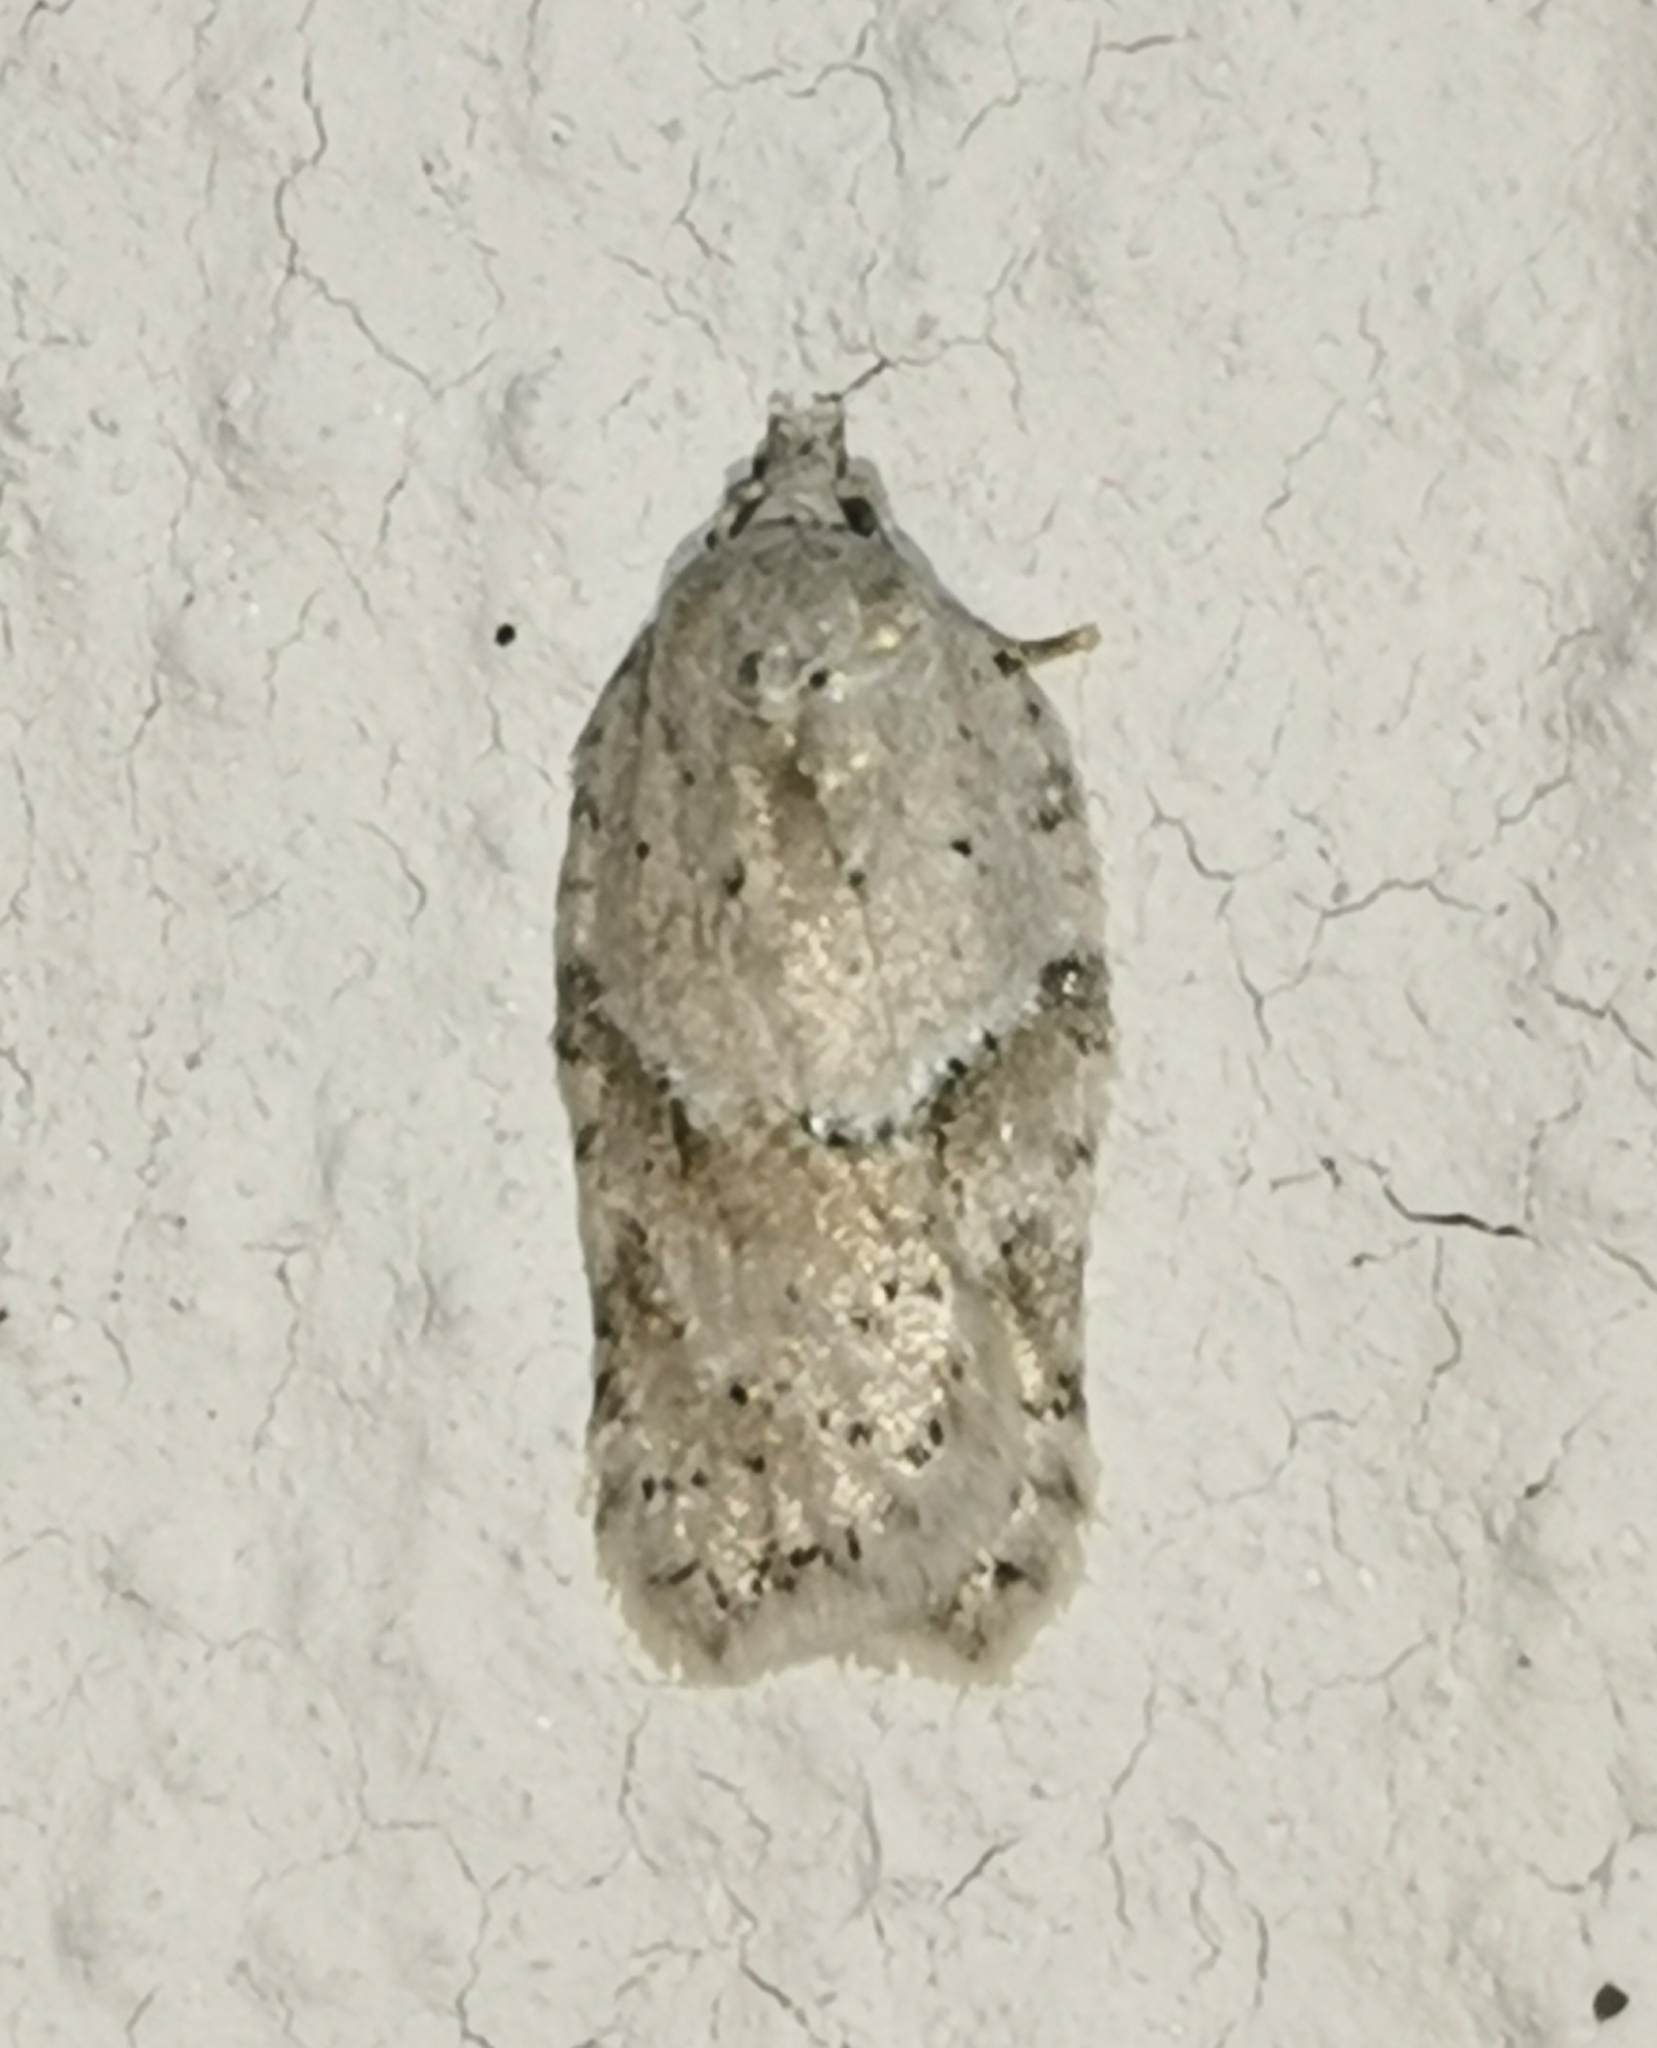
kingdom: Animalia
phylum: Arthropoda
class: Insecta
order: Lepidoptera
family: Tortricidae
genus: Acleris
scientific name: Acleris logiana
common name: Grey birch button
